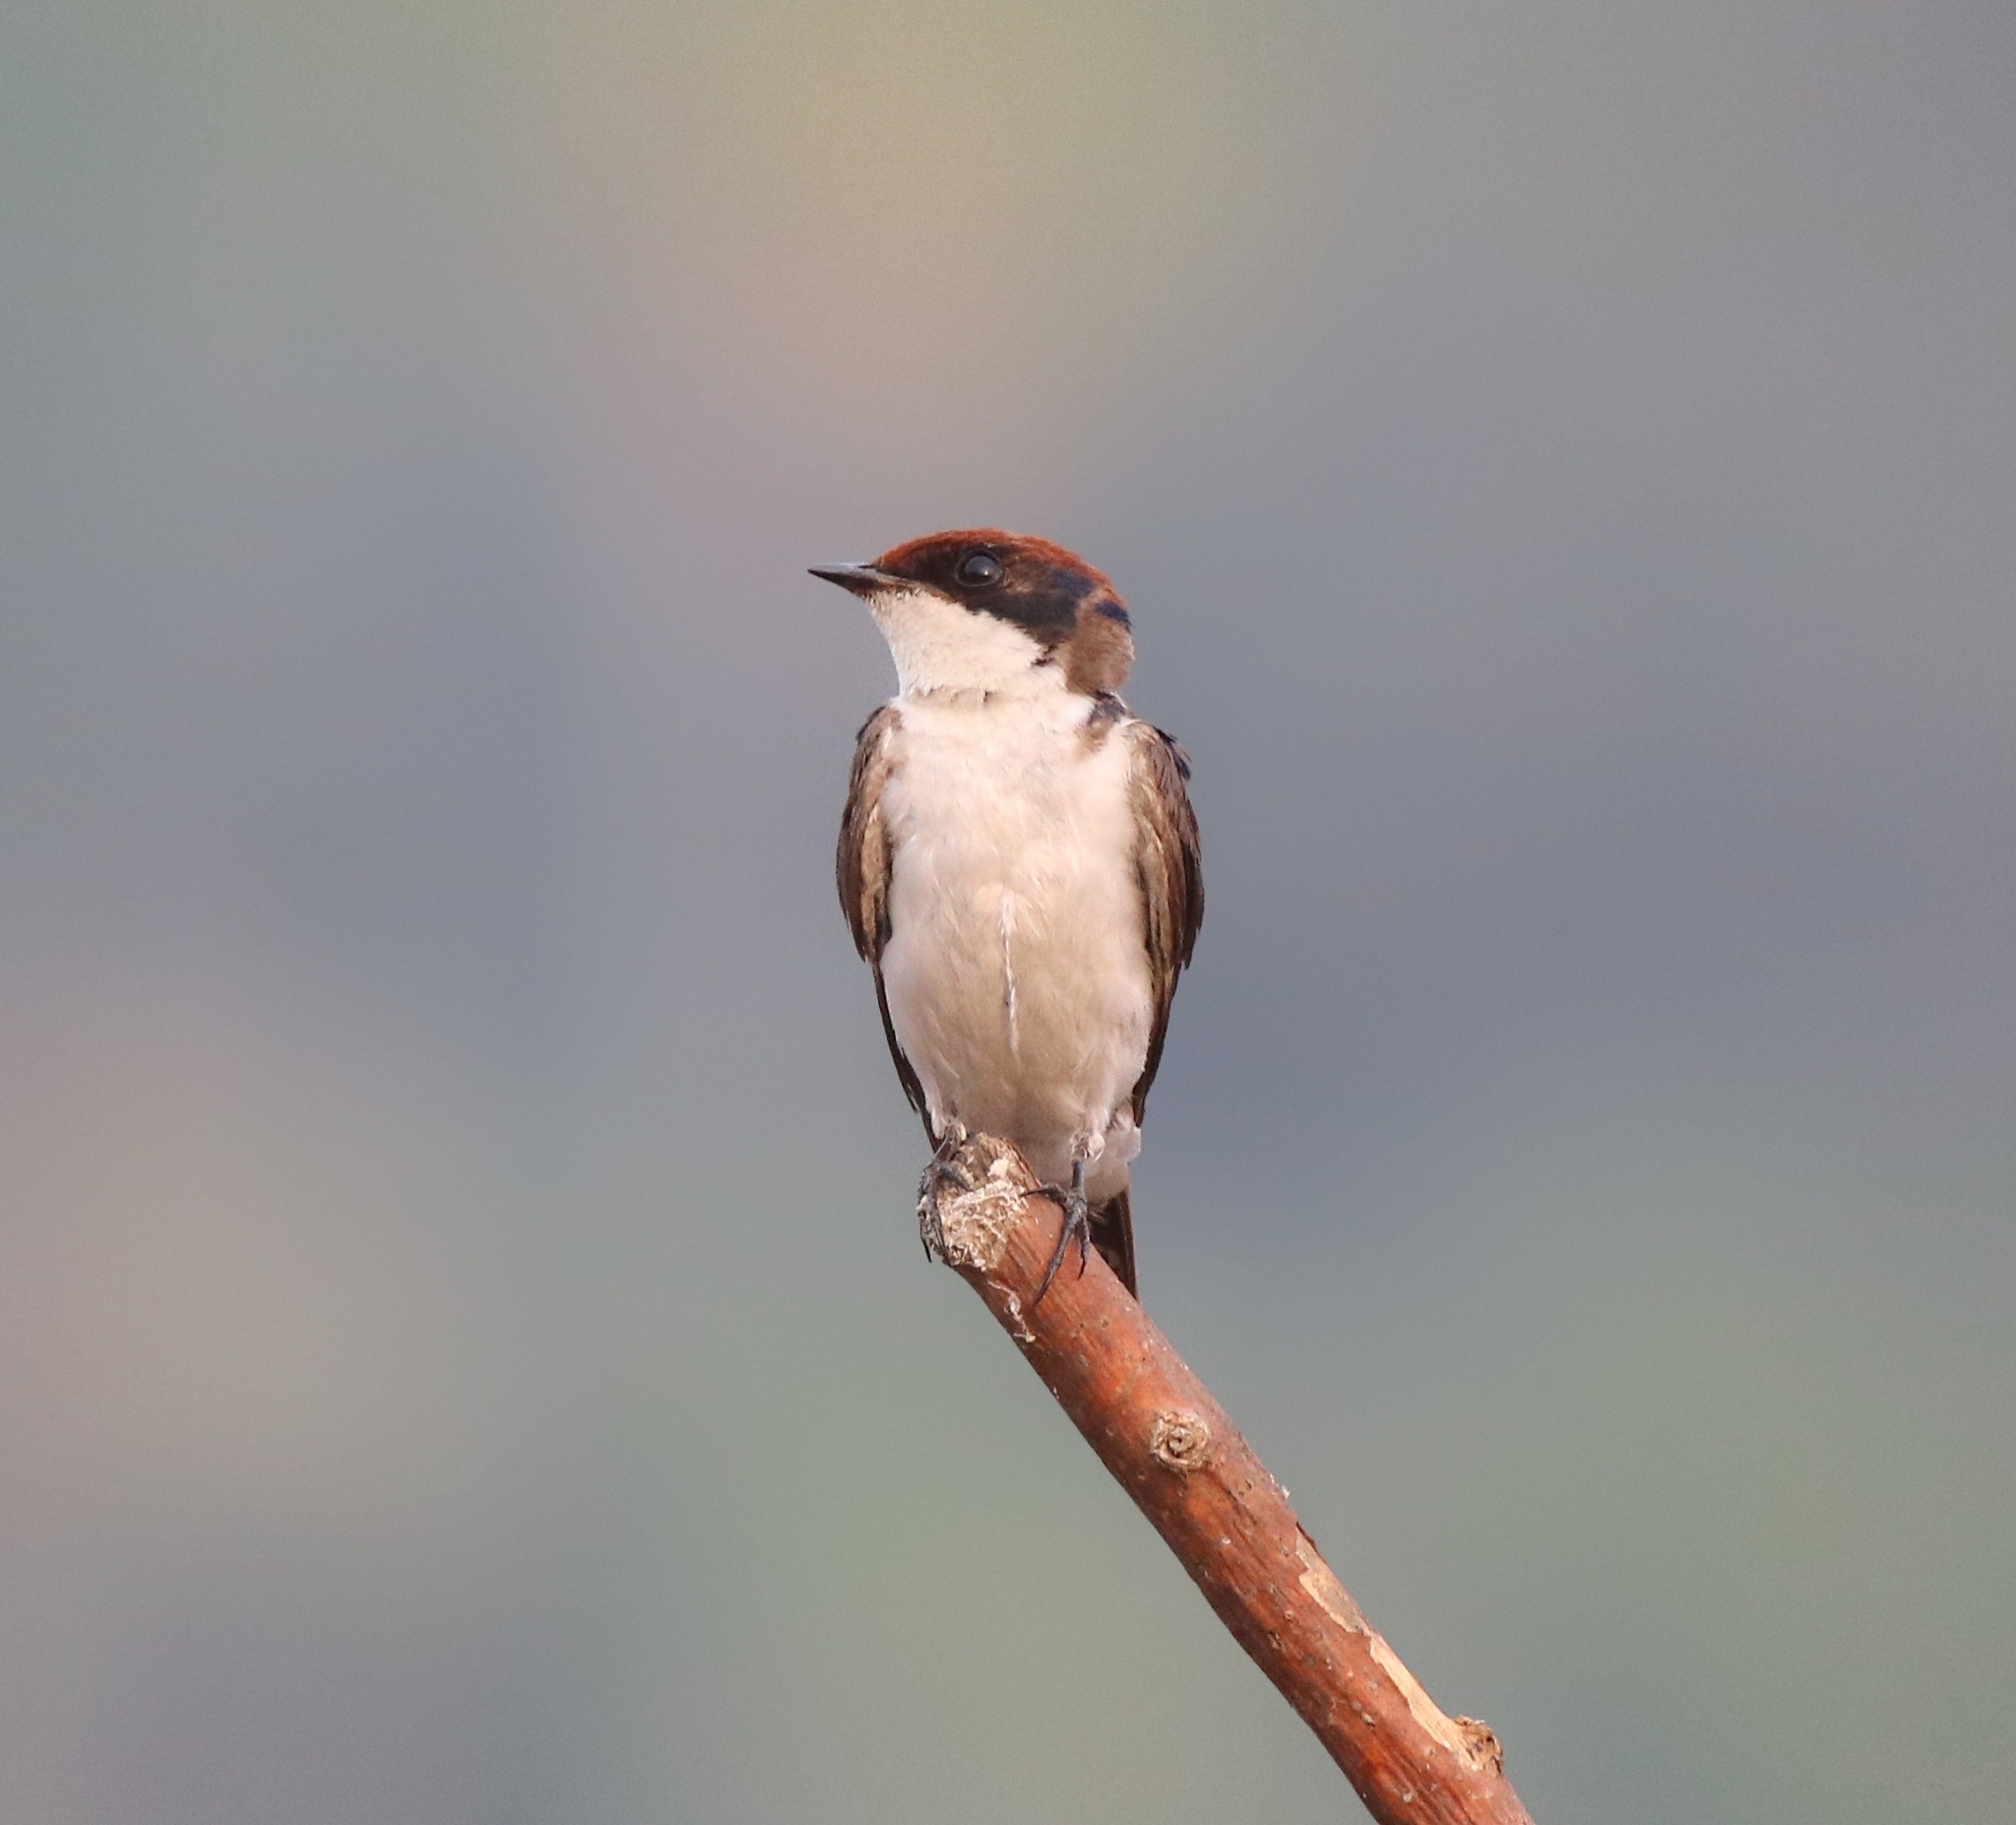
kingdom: Animalia
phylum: Chordata
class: Aves
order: Passeriformes
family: Hirundinidae
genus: Hirundo
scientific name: Hirundo smithii
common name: Wire-tailed swallow
